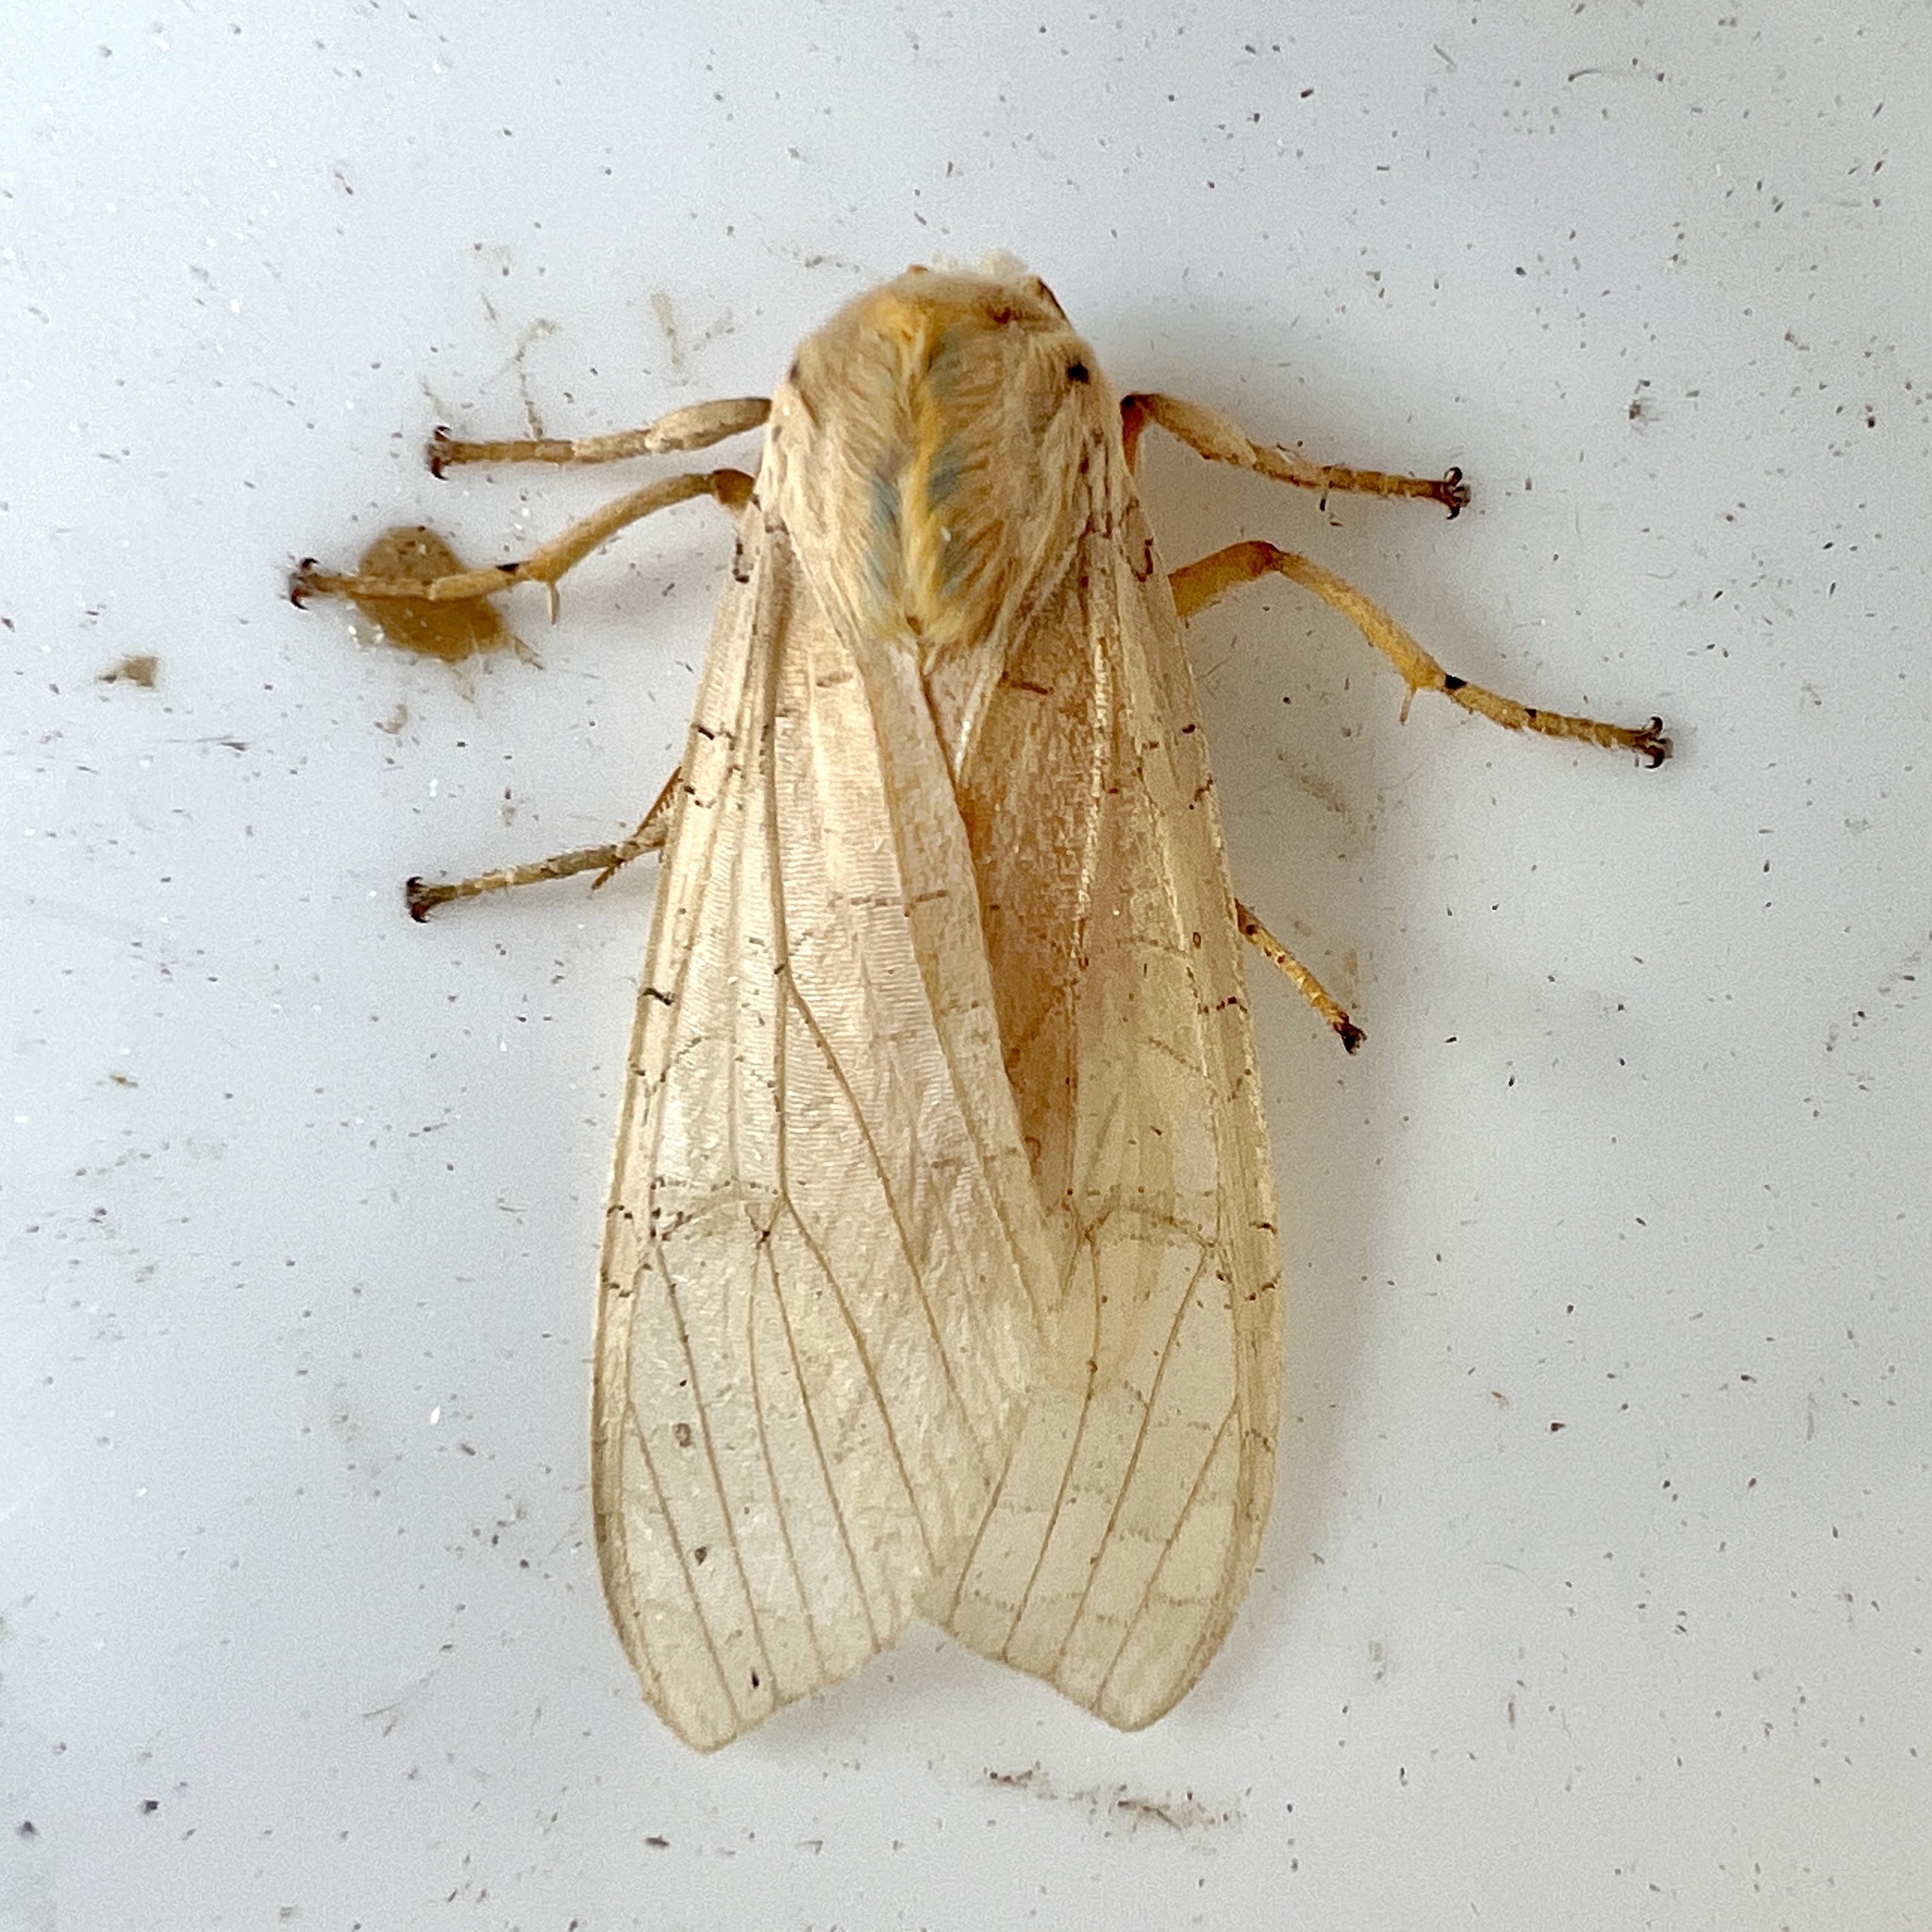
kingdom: Animalia
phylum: Arthropoda
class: Insecta
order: Lepidoptera
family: Erebidae
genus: Halysidota
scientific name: Halysidota
